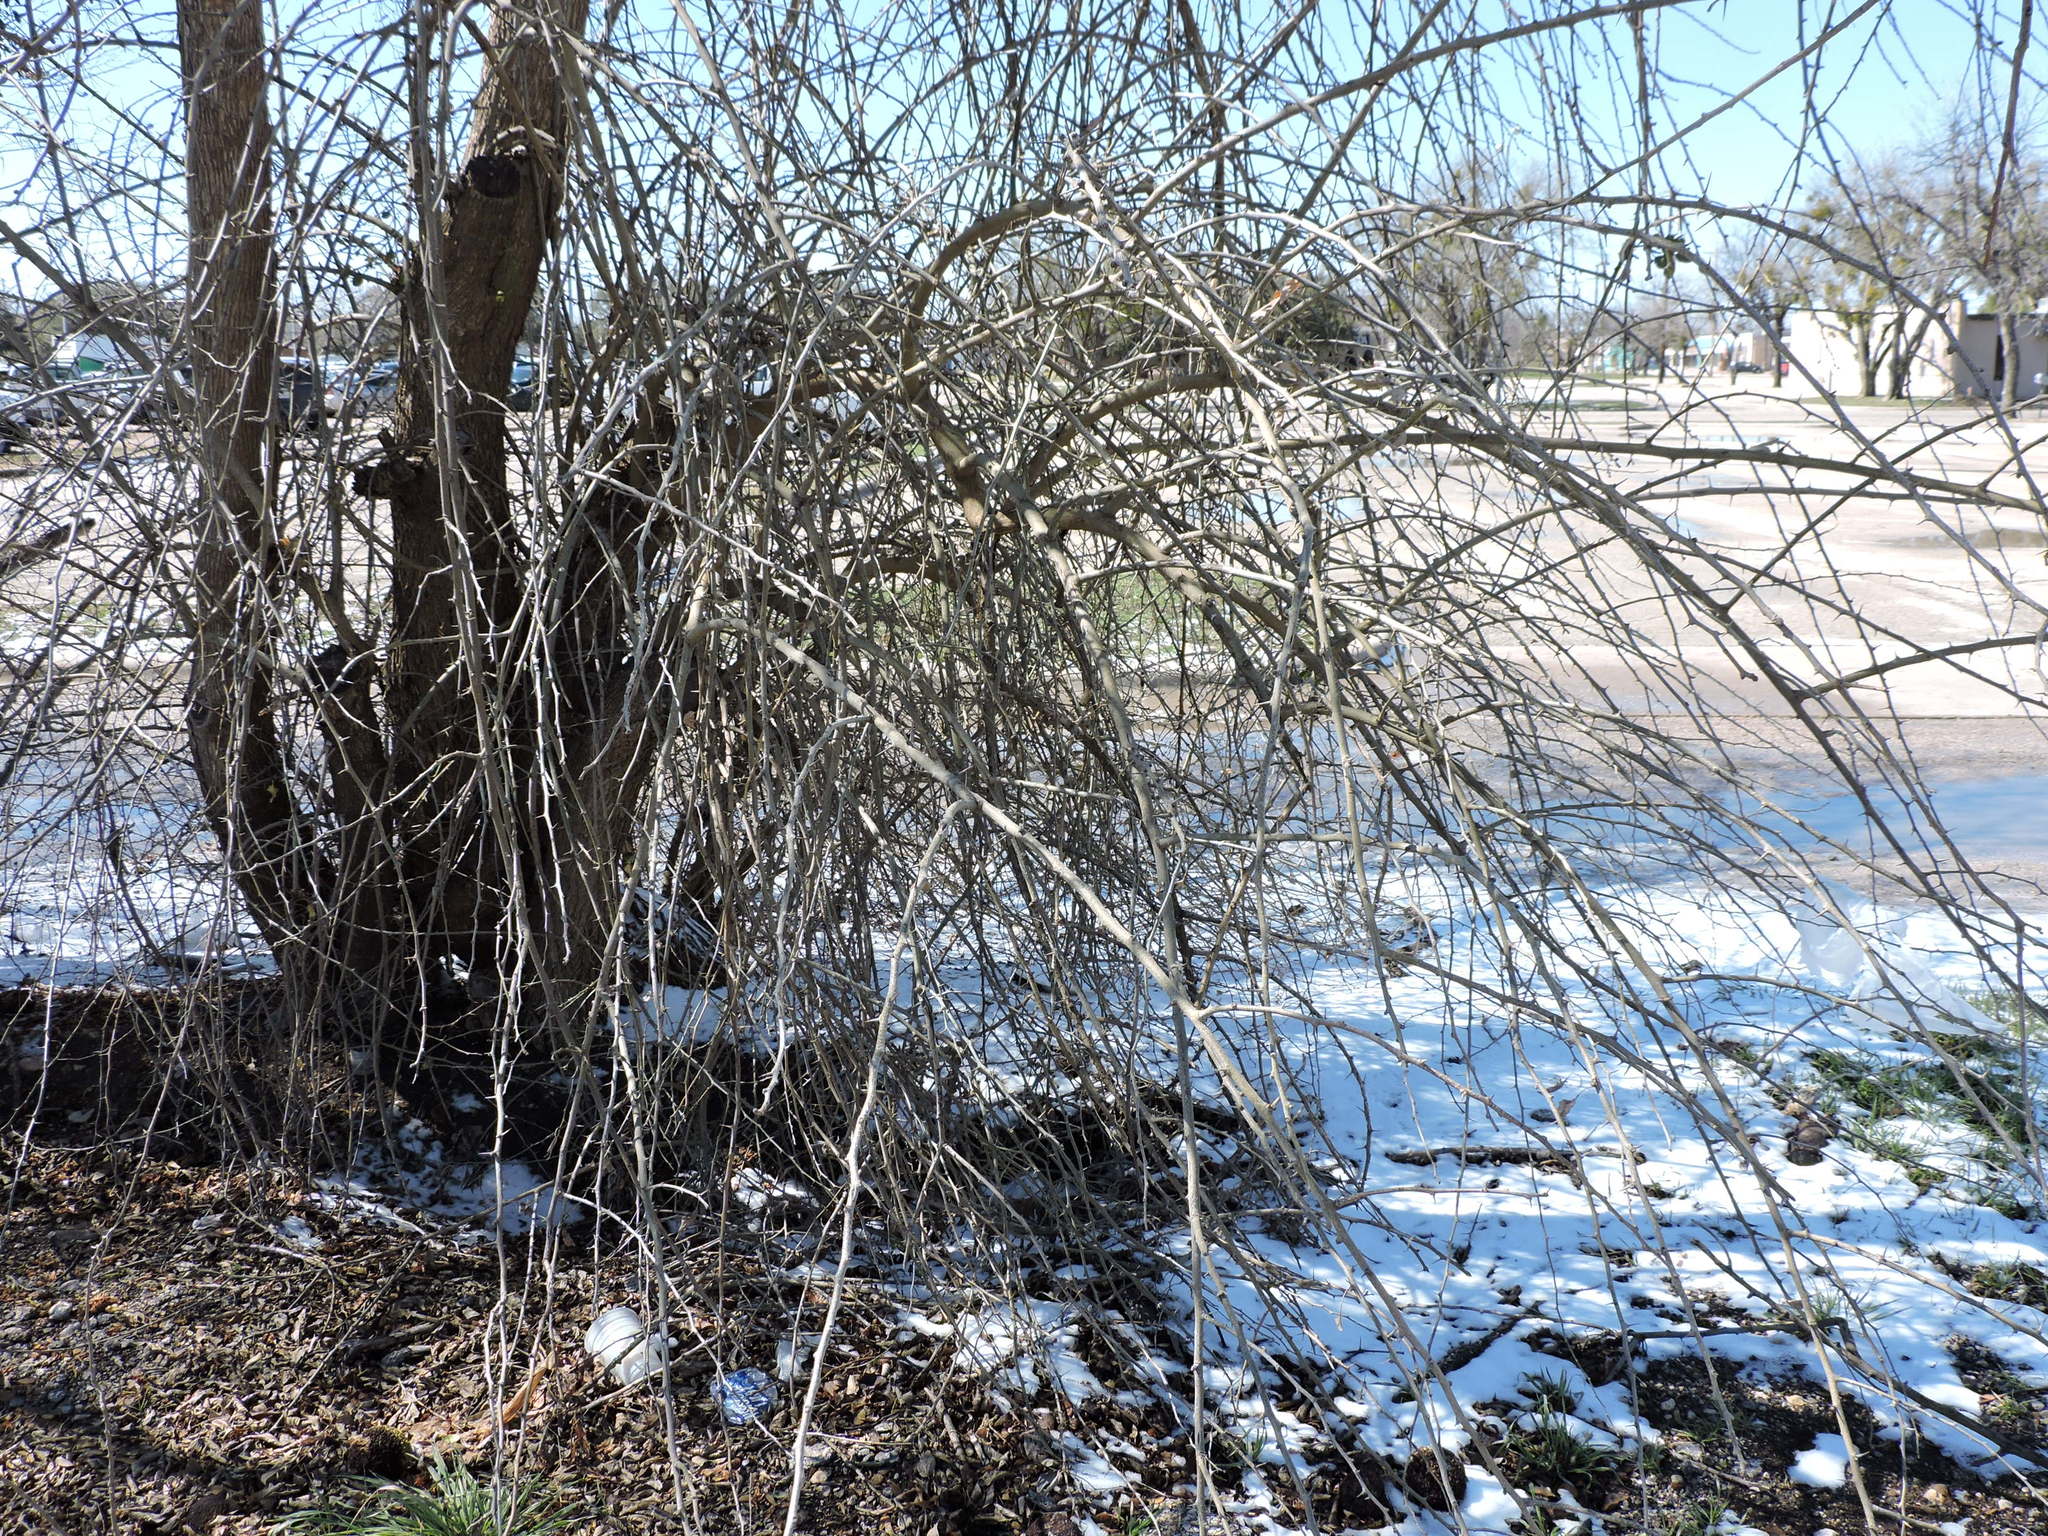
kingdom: Plantae
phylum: Tracheophyta
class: Magnoliopsida
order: Rosales
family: Moraceae
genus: Maclura
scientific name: Maclura pomifera
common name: Osage-orange
